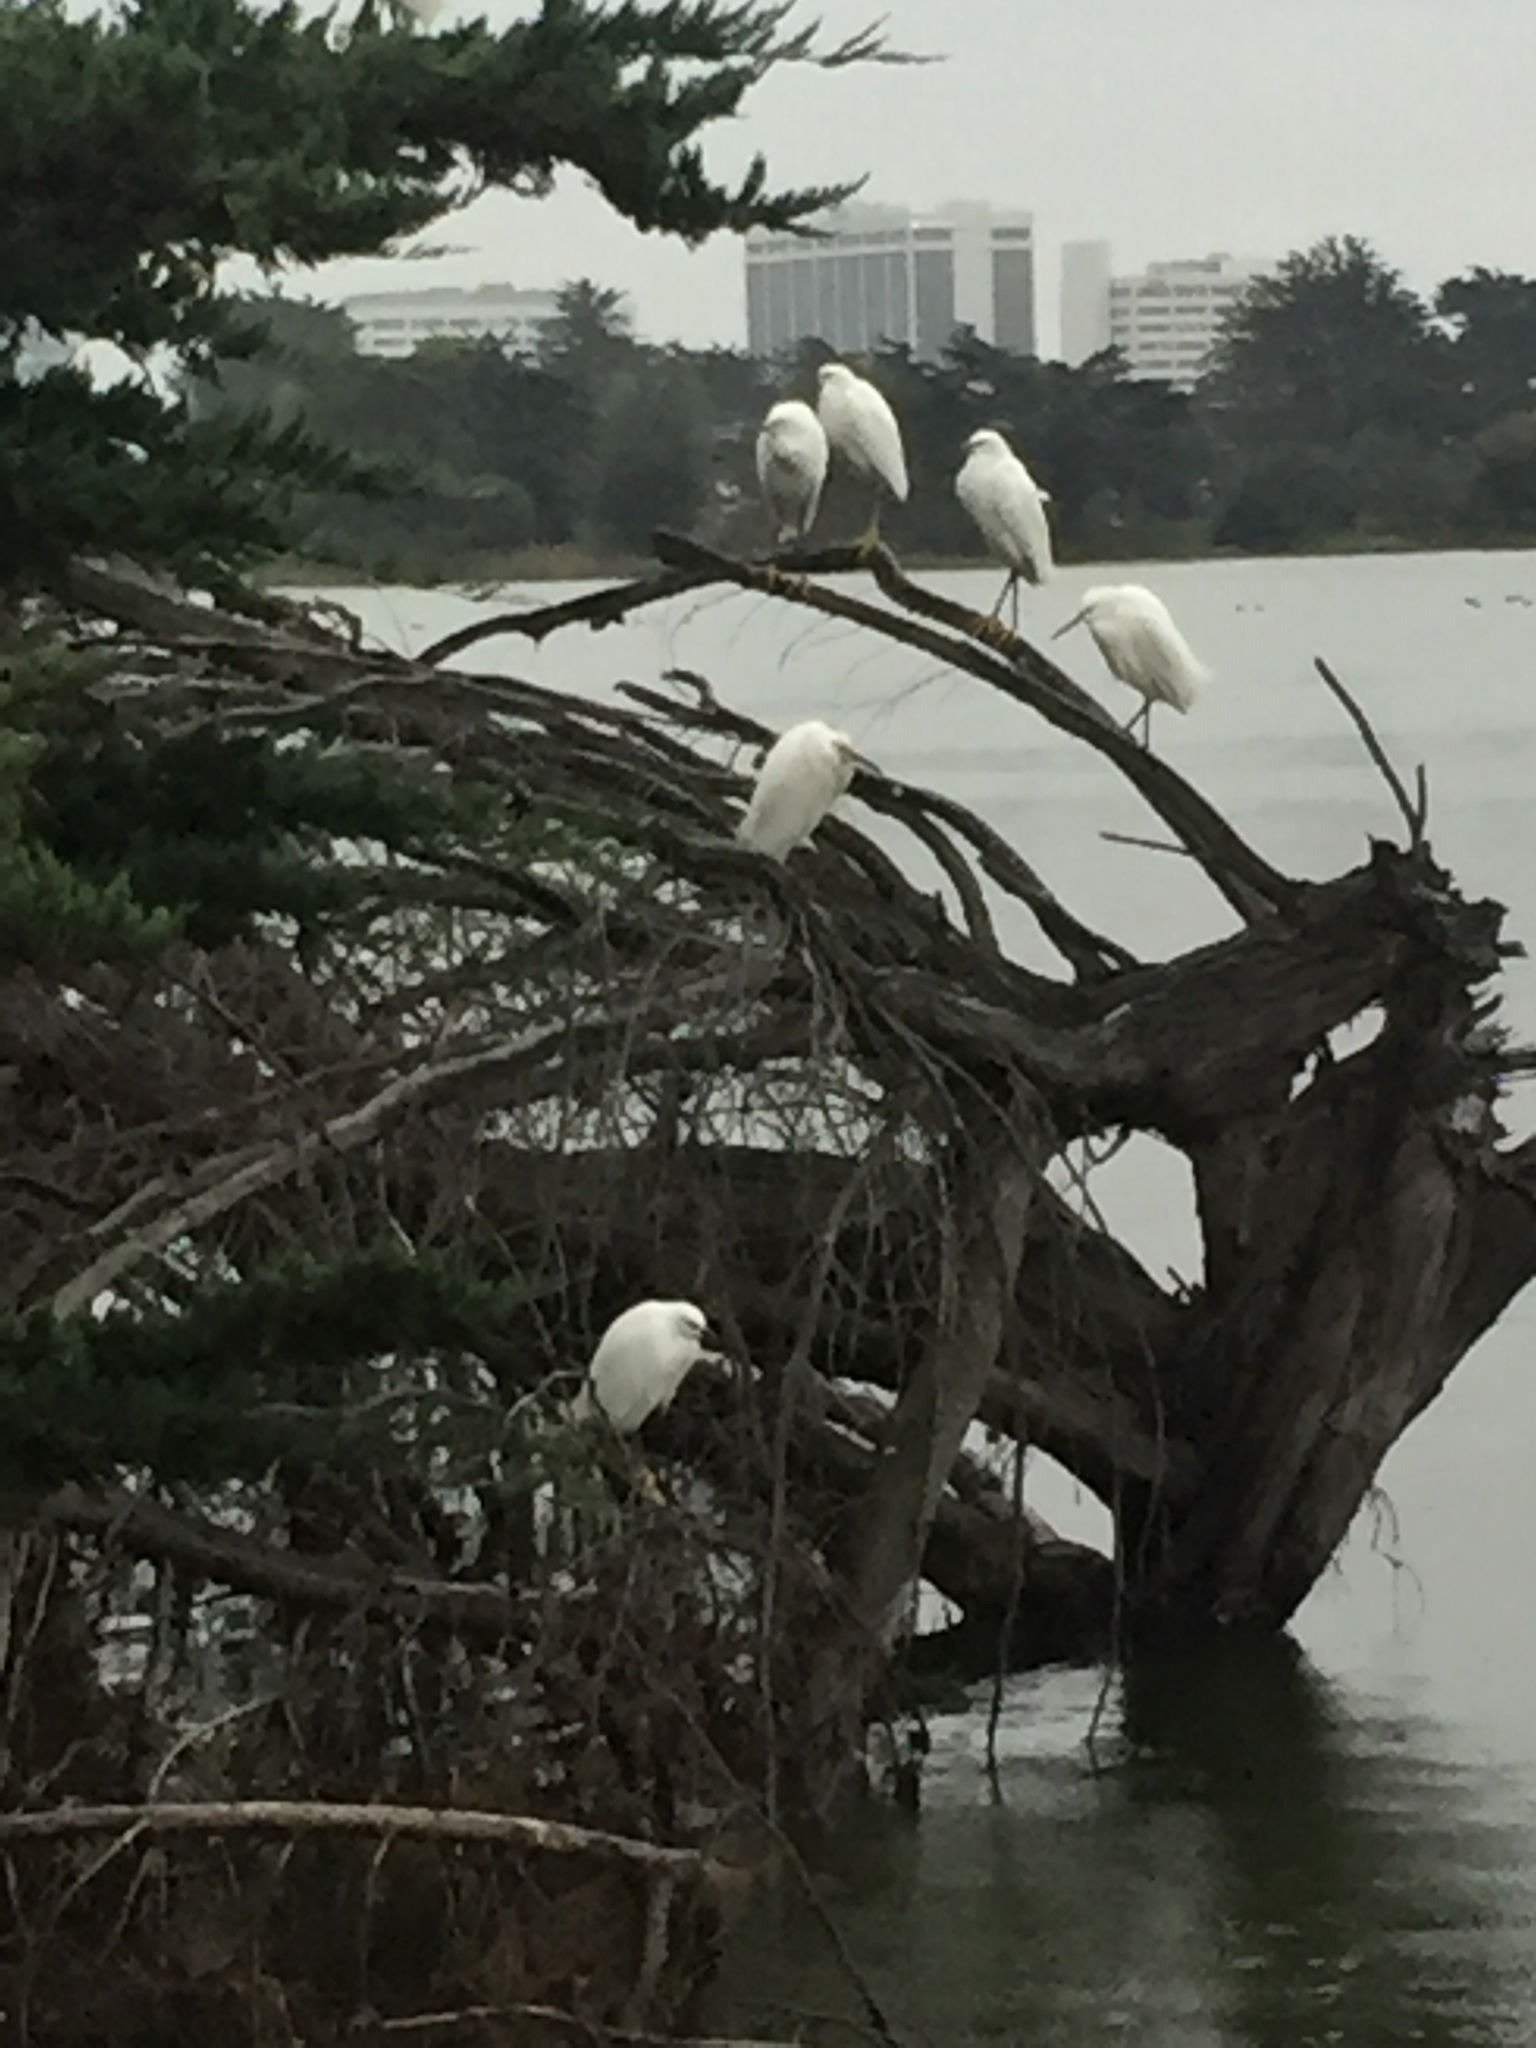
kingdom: Animalia
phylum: Chordata
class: Aves
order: Pelecaniformes
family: Ardeidae
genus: Egretta
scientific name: Egretta thula
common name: Snowy egret
